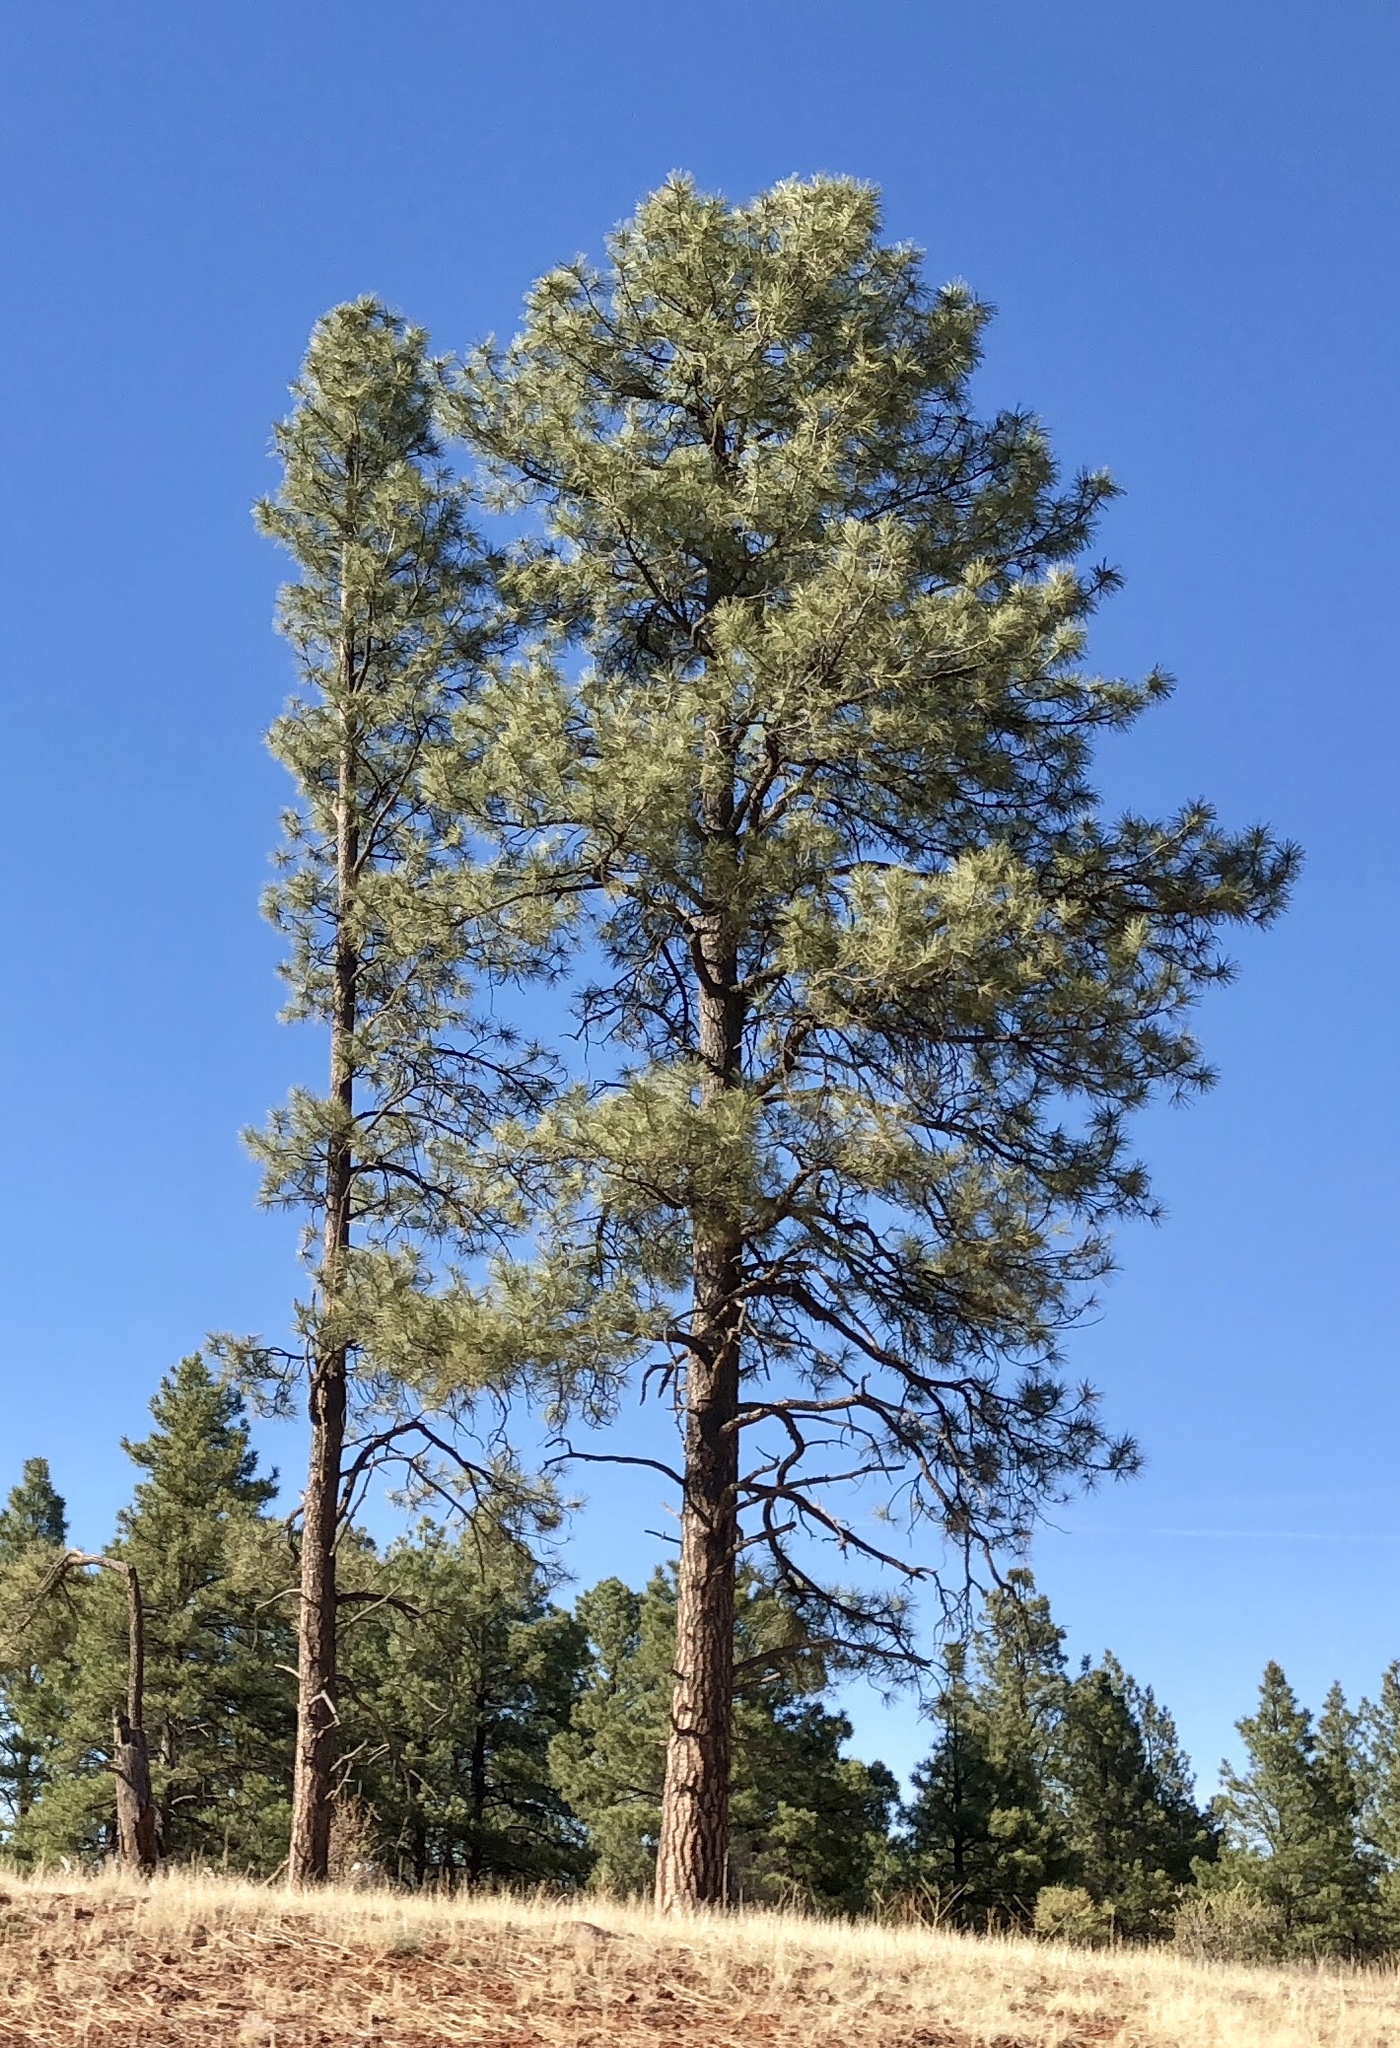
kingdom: Plantae
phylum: Tracheophyta
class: Pinopsida
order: Pinales
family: Pinaceae
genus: Pinus
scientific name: Pinus ponderosa
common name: Western yellow-pine
